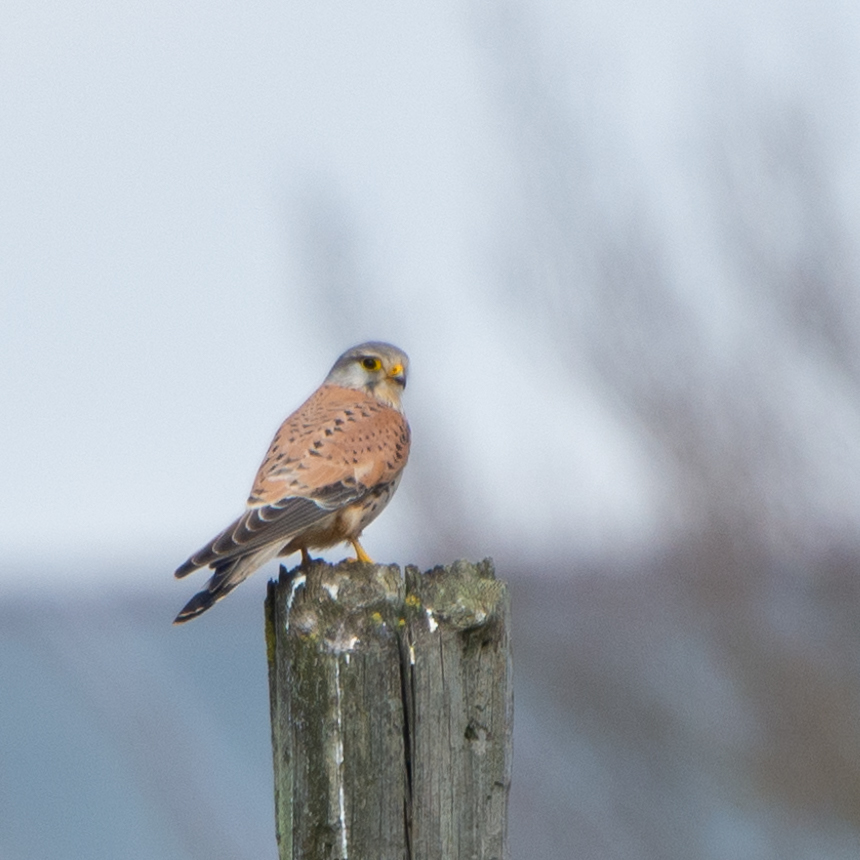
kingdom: Animalia
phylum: Chordata
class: Aves
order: Falconiformes
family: Falconidae
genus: Falco
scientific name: Falco tinnunculus
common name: Common kestrel
